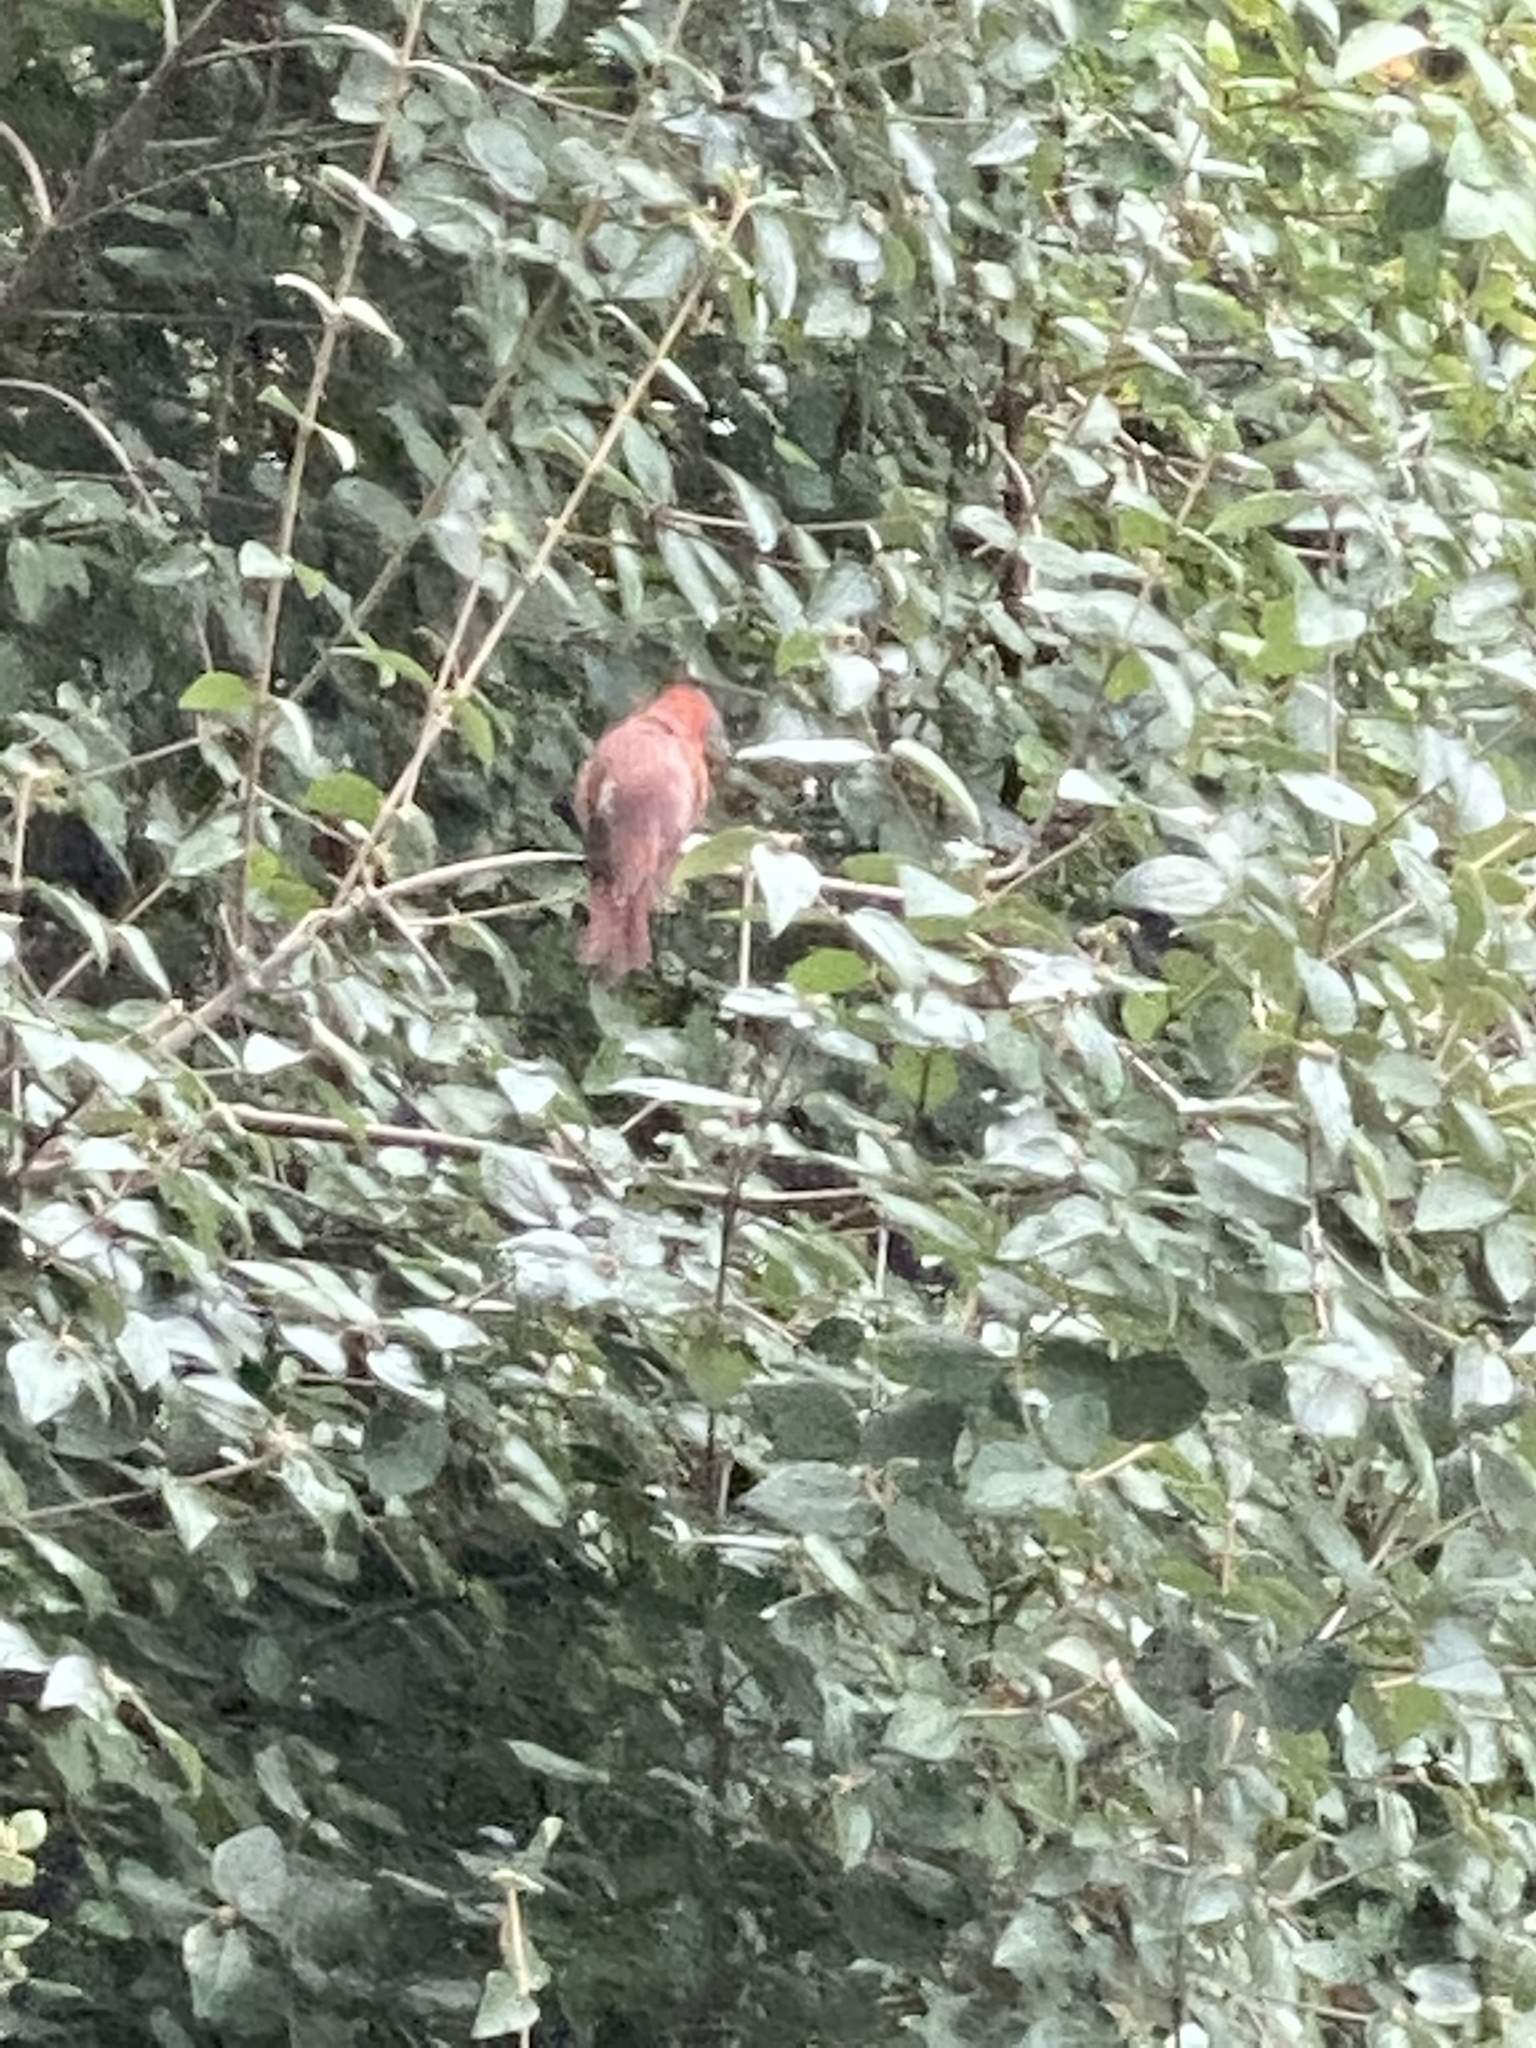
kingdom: Animalia
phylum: Chordata
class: Aves
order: Passeriformes
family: Cardinalidae
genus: Cardinalis
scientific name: Cardinalis cardinalis
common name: Northern cardinal
